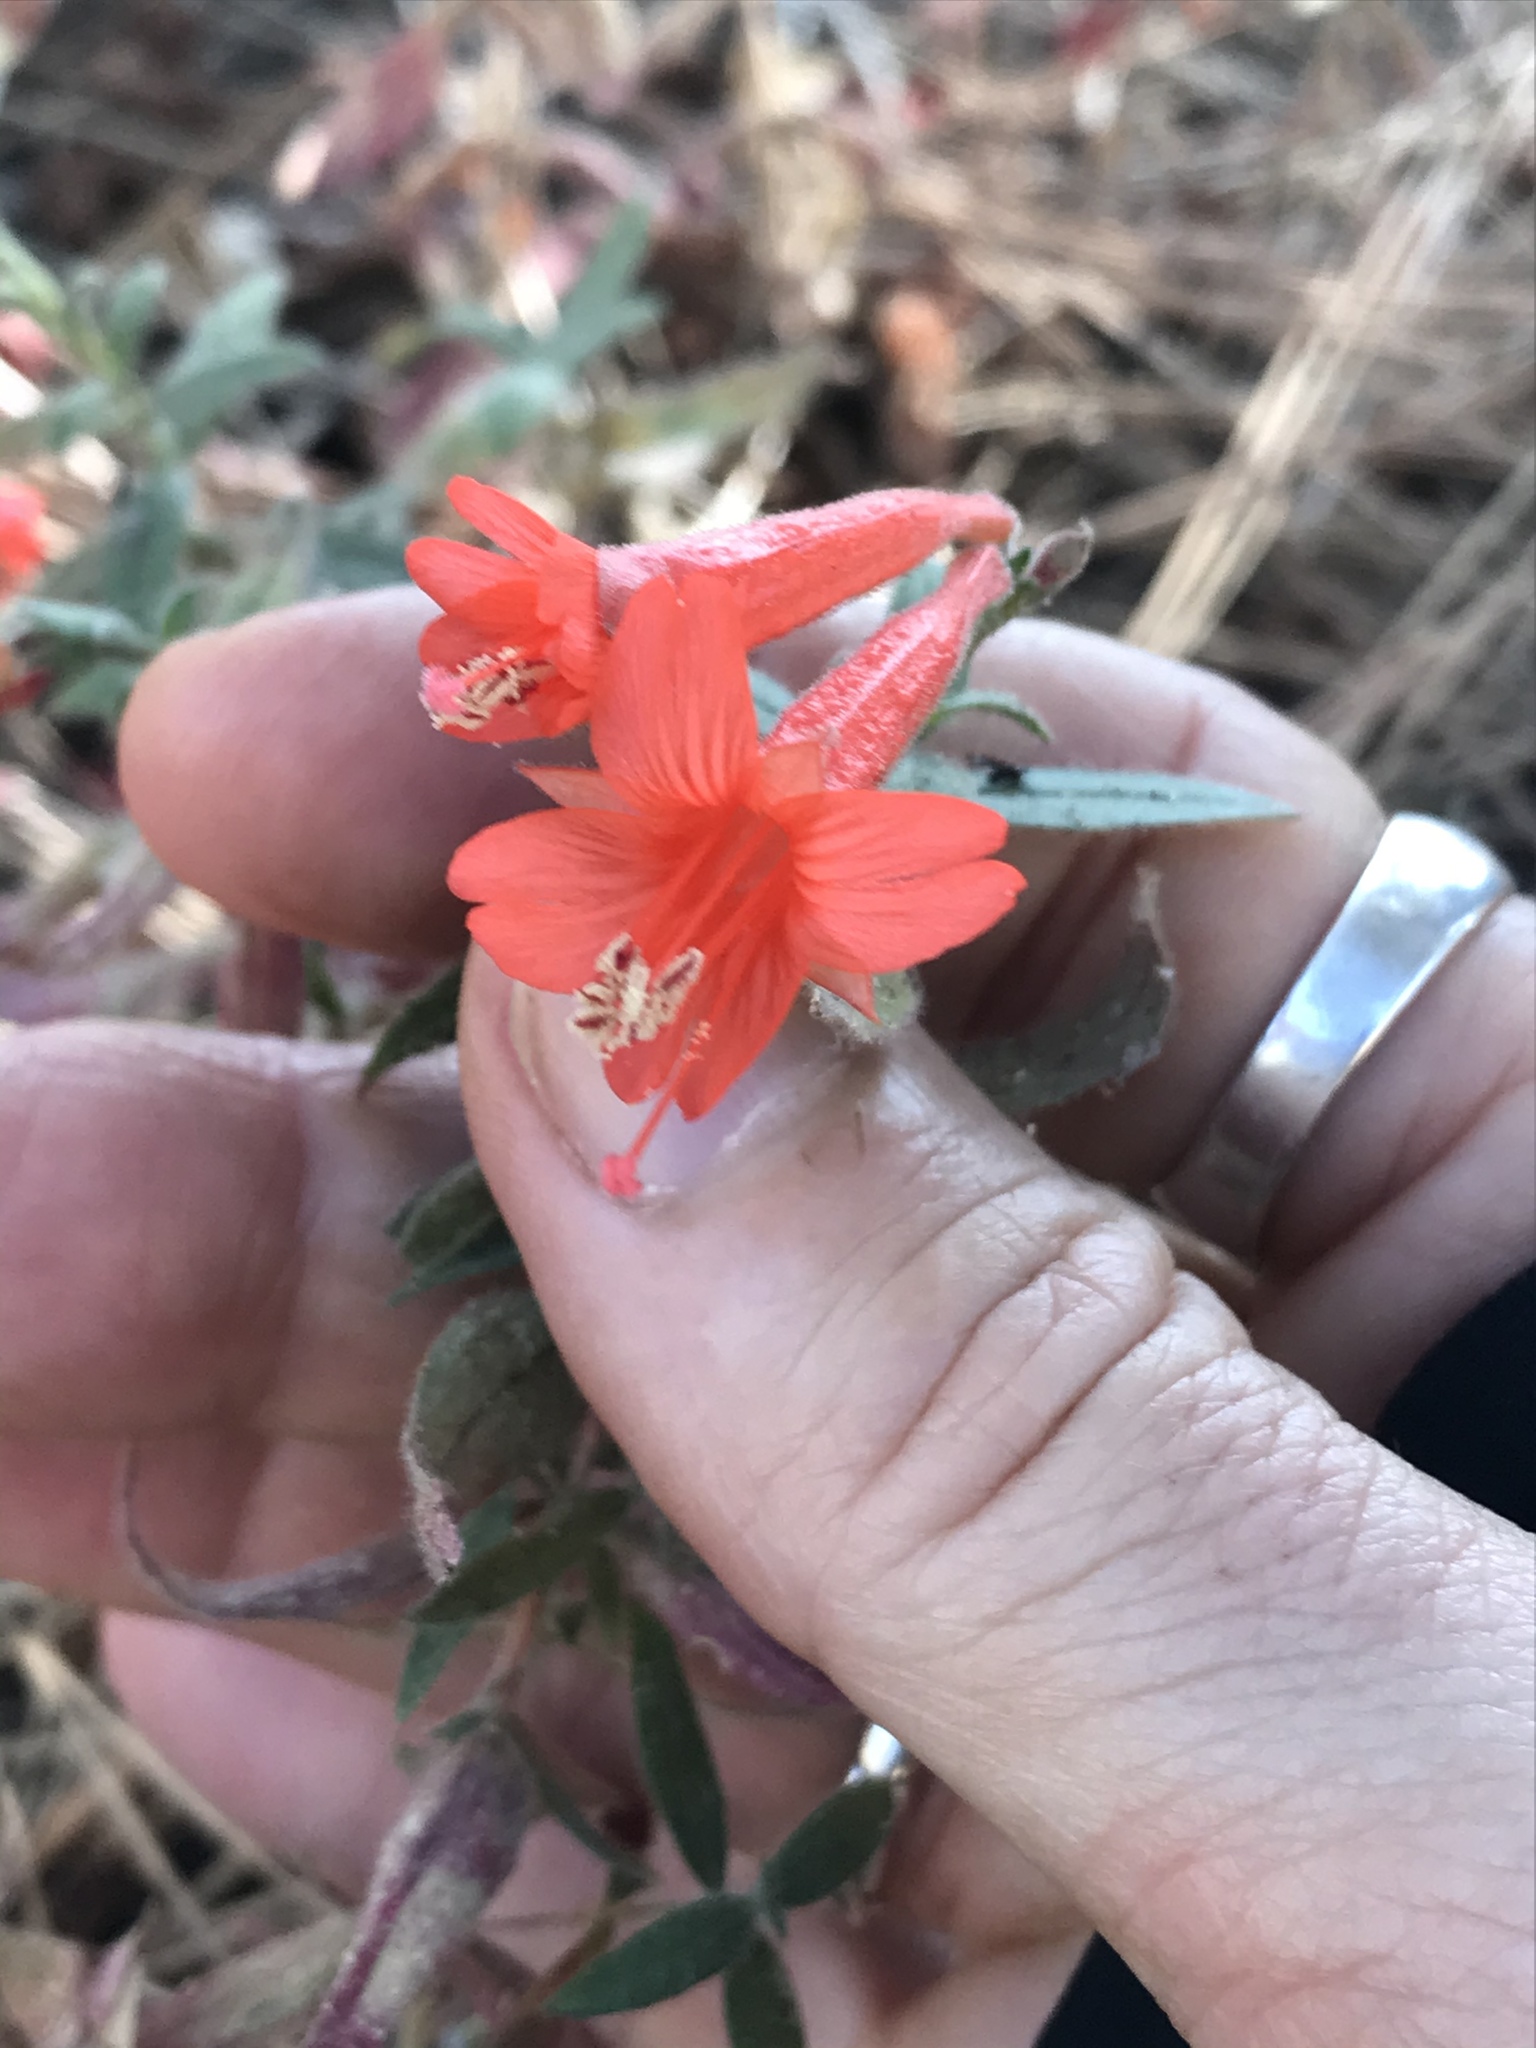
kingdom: Plantae
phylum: Tracheophyta
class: Magnoliopsida
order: Myrtales
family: Onagraceae
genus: Epilobium
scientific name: Epilobium canum
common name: California-fuchsia
